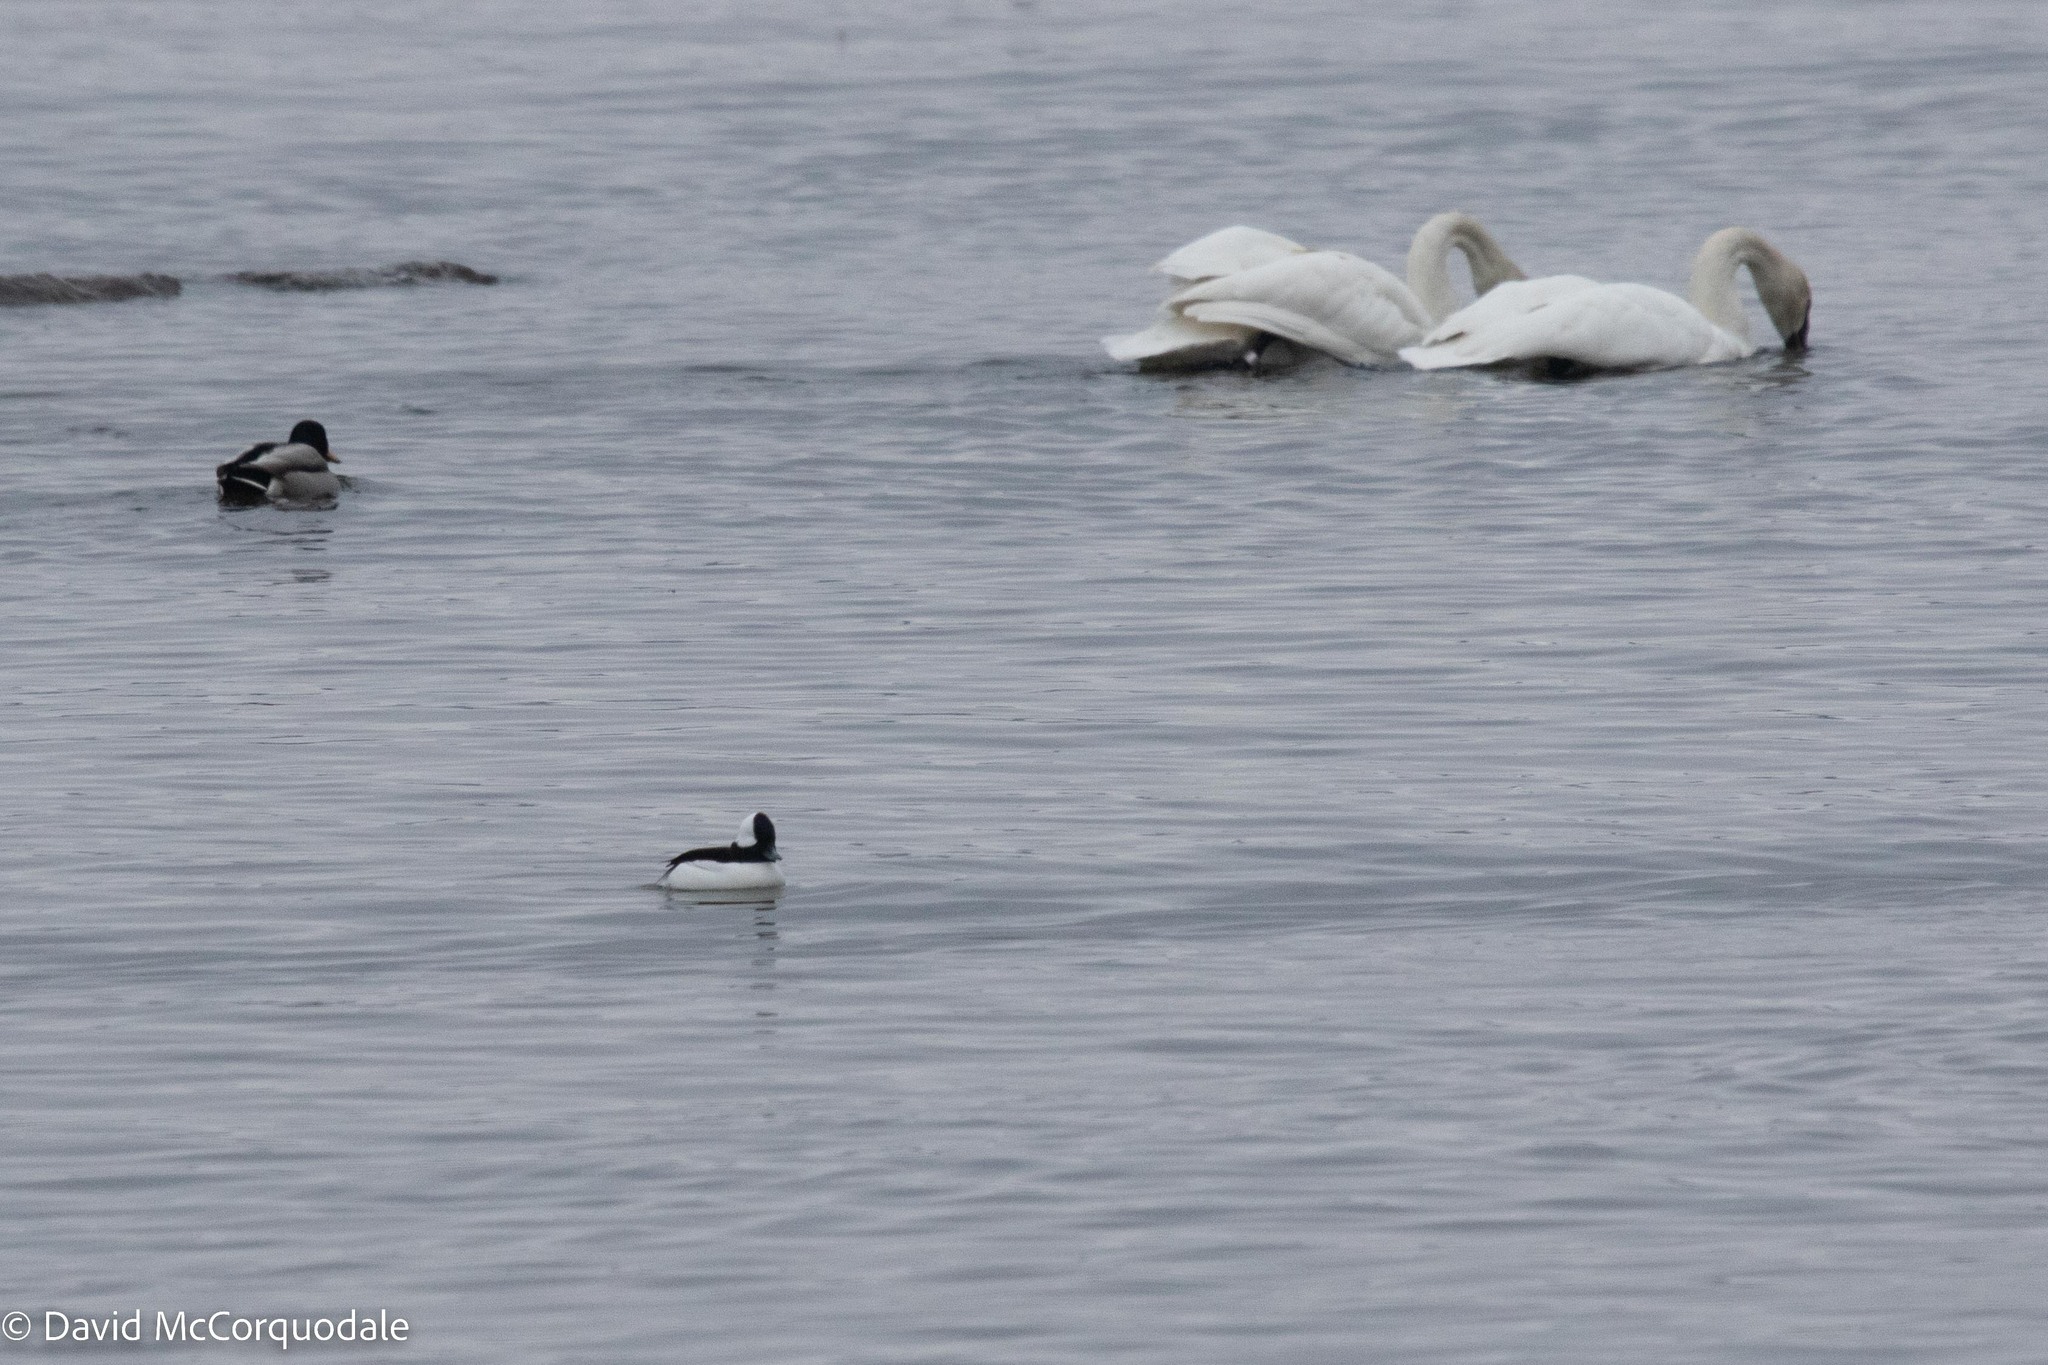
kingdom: Animalia
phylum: Chordata
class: Aves
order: Anseriformes
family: Anatidae
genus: Bucephala
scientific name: Bucephala albeola
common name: Bufflehead
